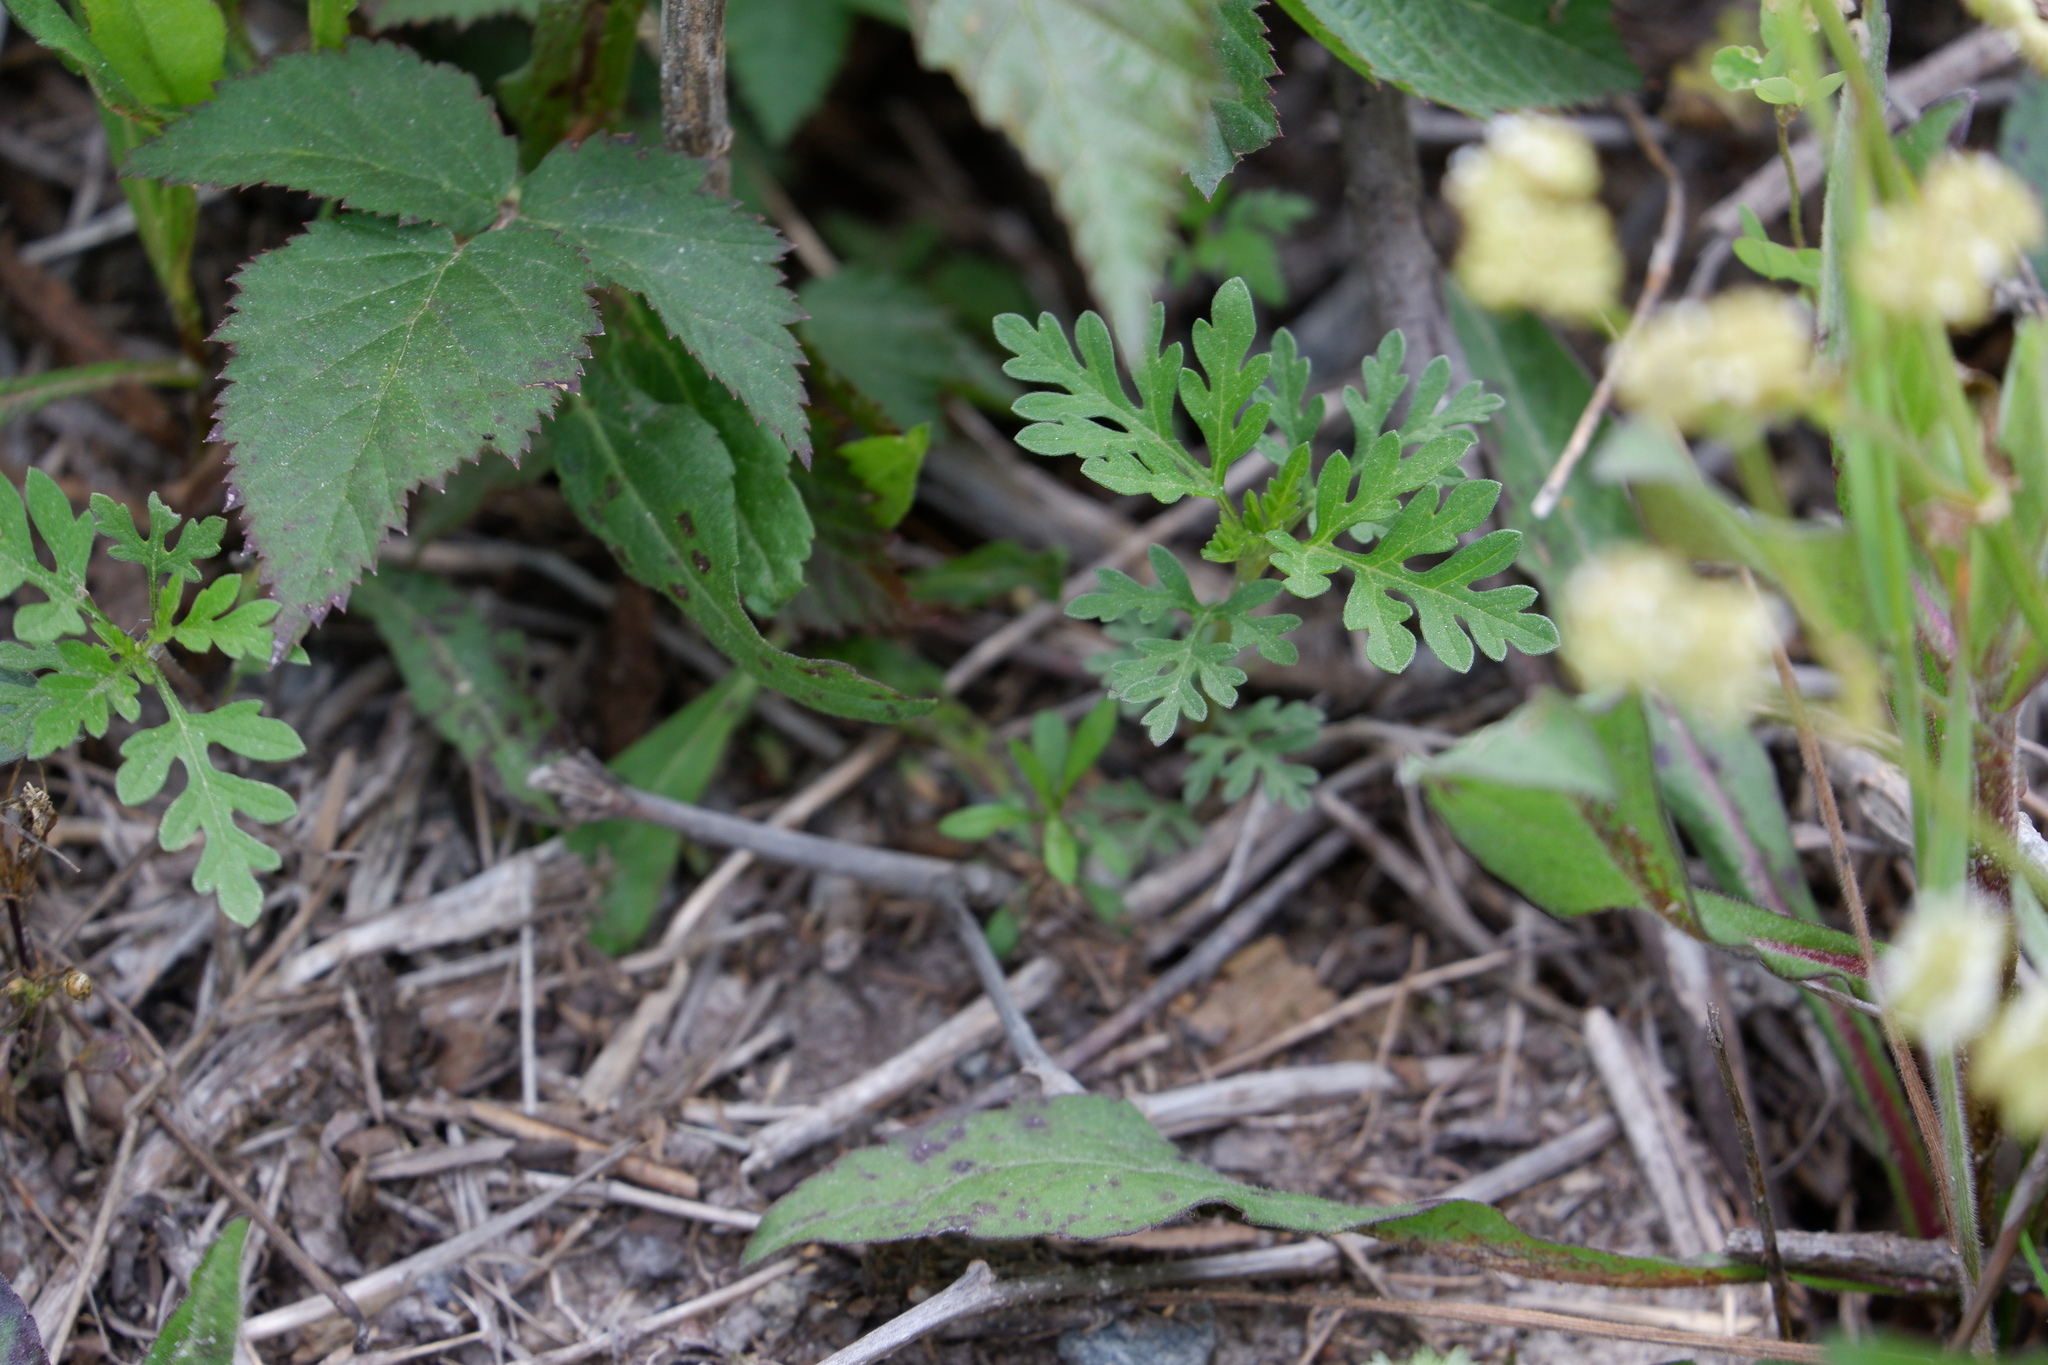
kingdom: Plantae
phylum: Tracheophyta
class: Magnoliopsida
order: Asterales
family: Asteraceae
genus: Ambrosia
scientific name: Ambrosia artemisiifolia
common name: Annual ragweed
